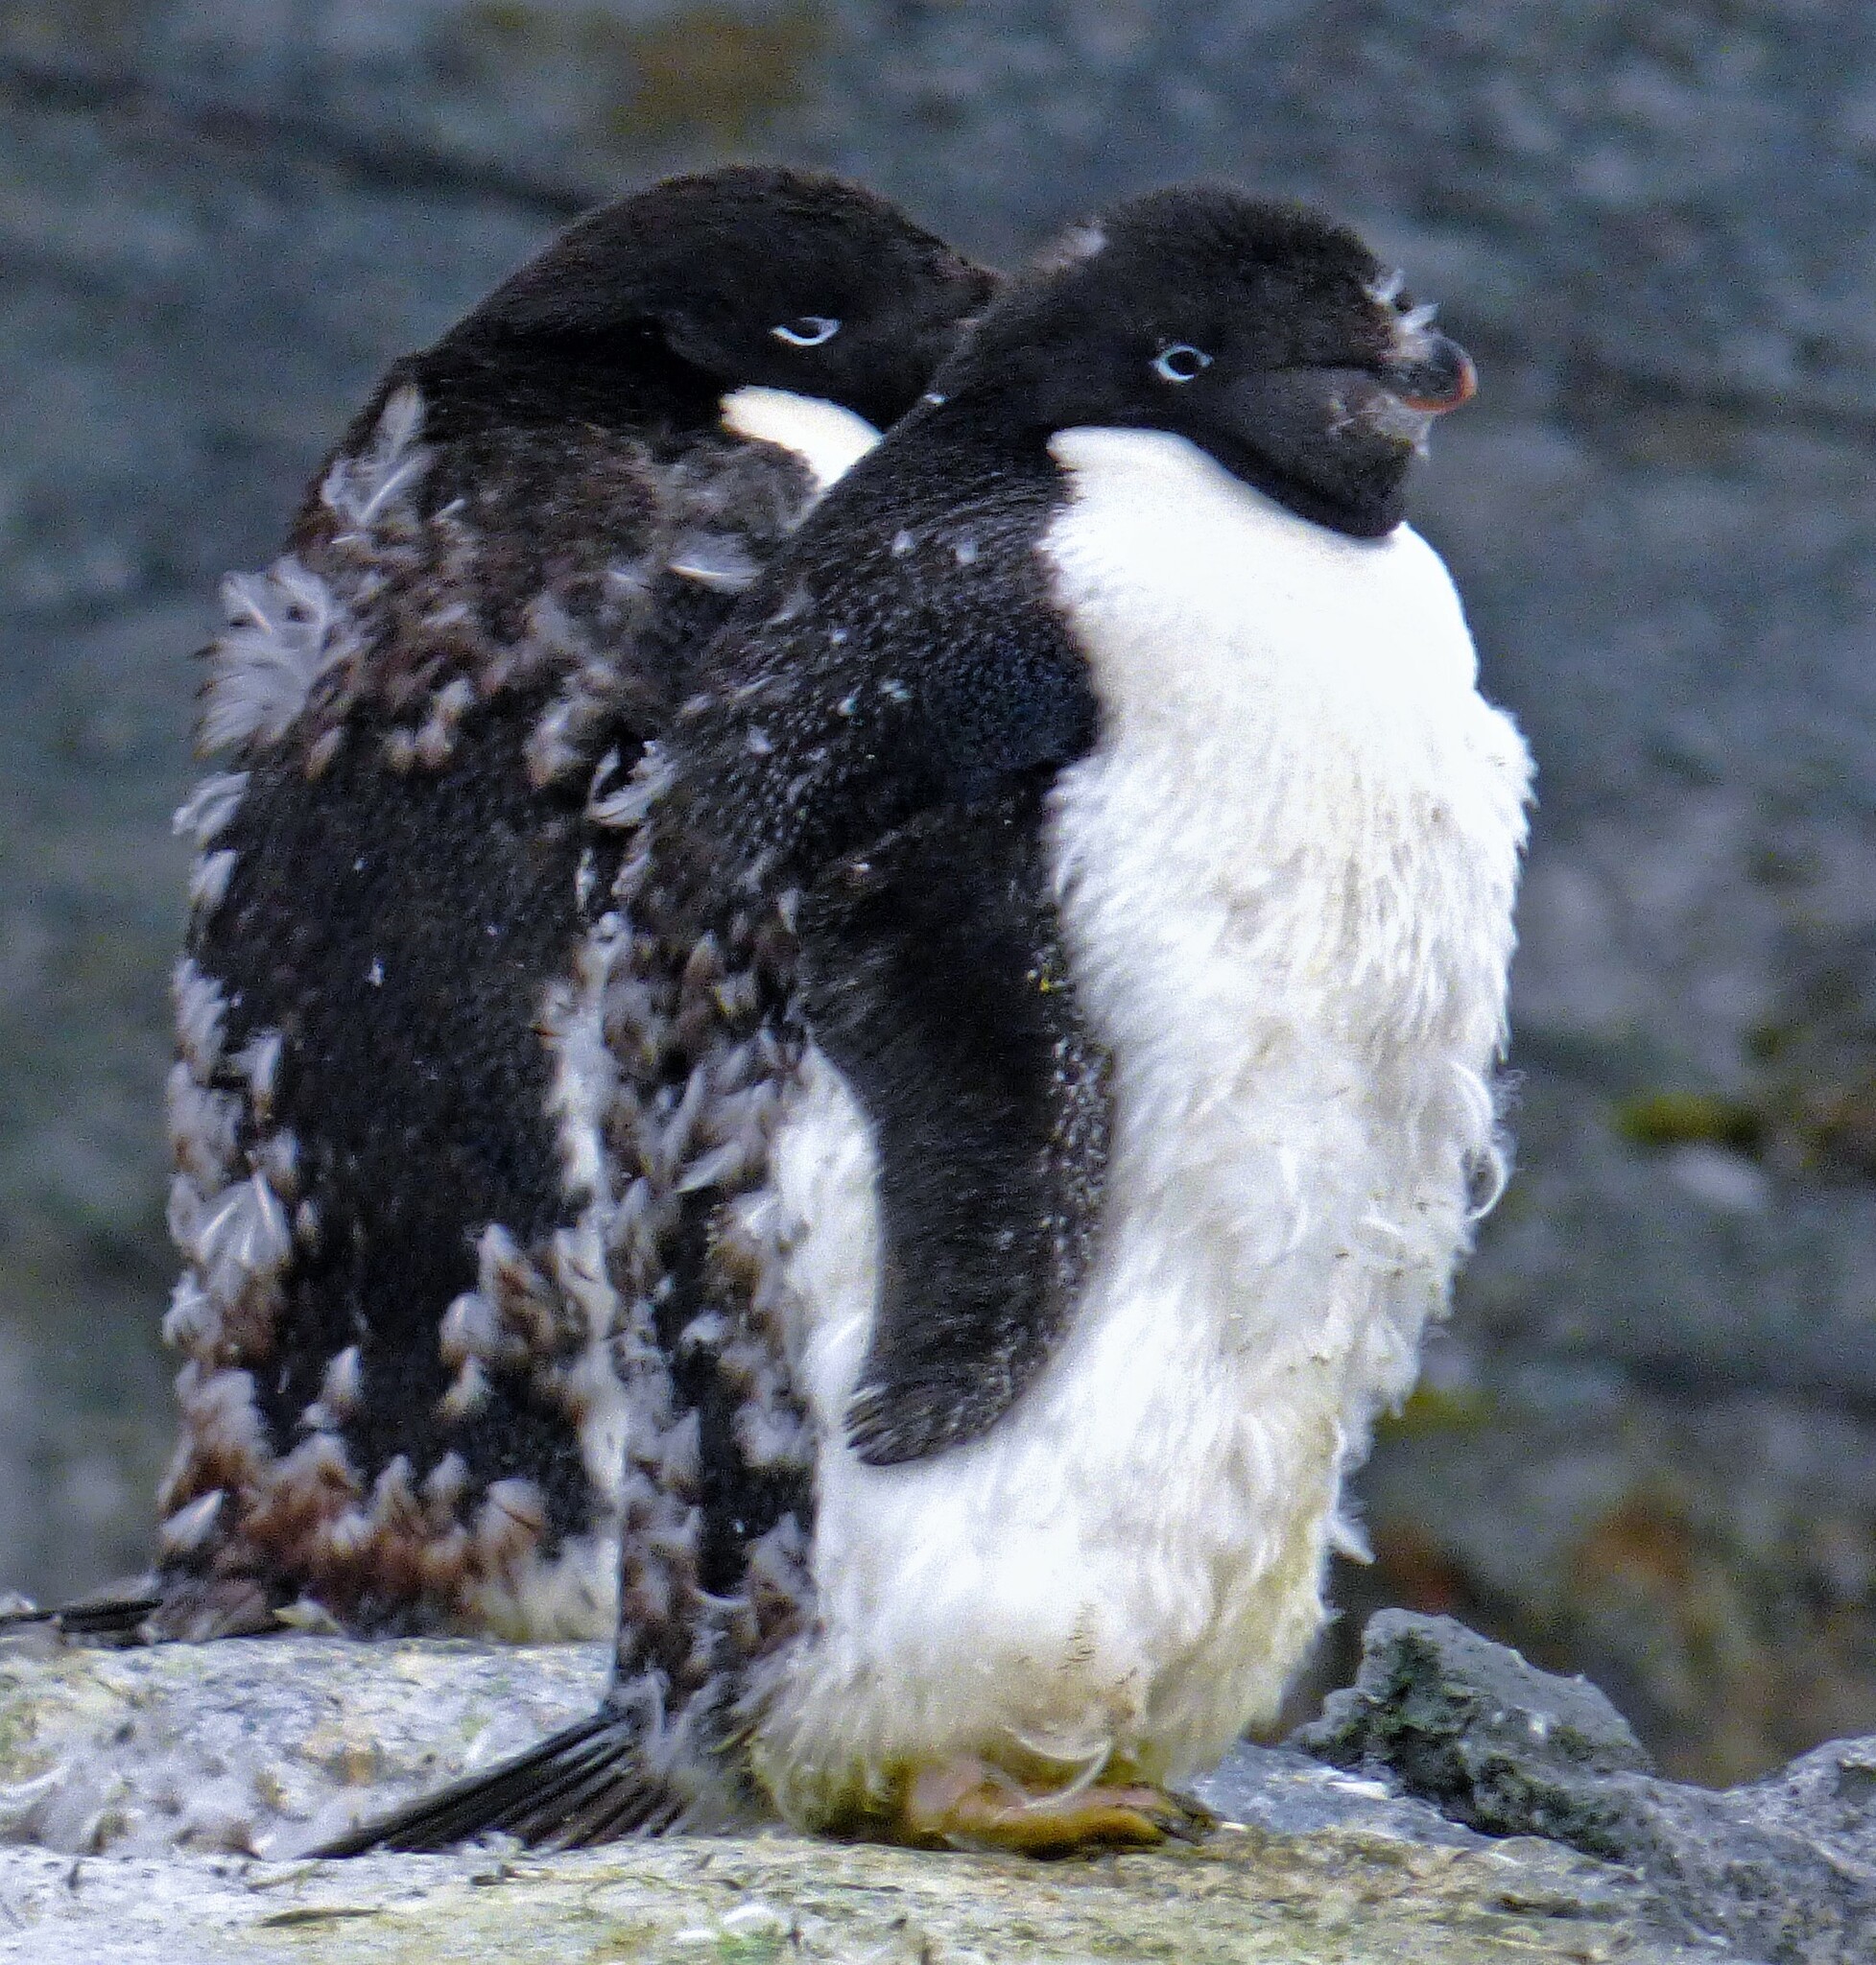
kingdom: Animalia
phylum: Chordata
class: Aves
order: Sphenisciformes
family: Spheniscidae
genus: Pygoscelis
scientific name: Pygoscelis adeliae
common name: Adelie penguin
